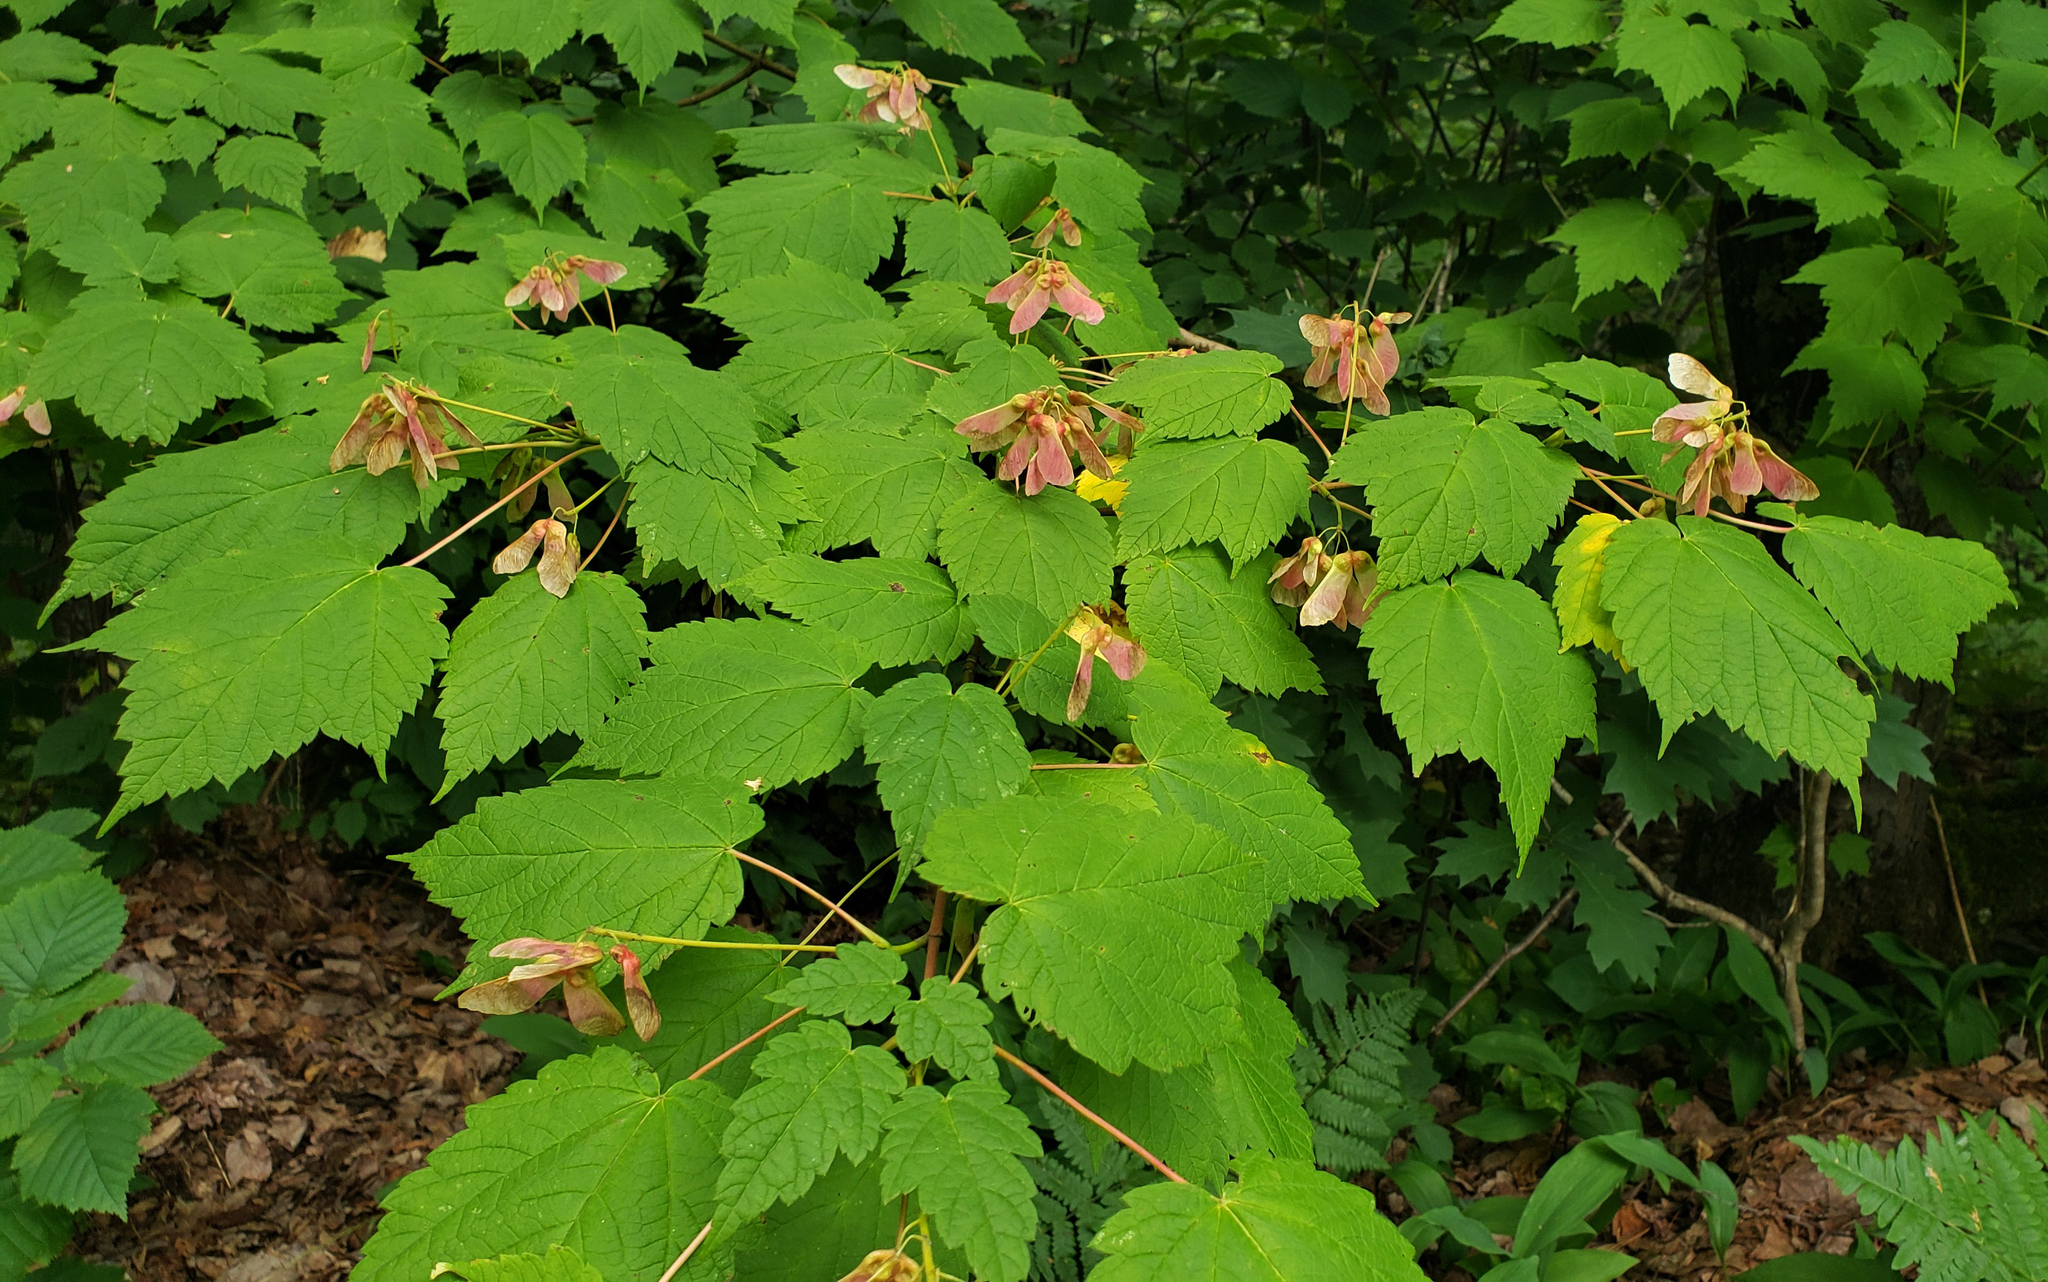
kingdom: Plantae
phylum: Tracheophyta
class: Magnoliopsida
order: Sapindales
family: Sapindaceae
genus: Acer
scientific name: Acer spicatum
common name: Mountain maple
